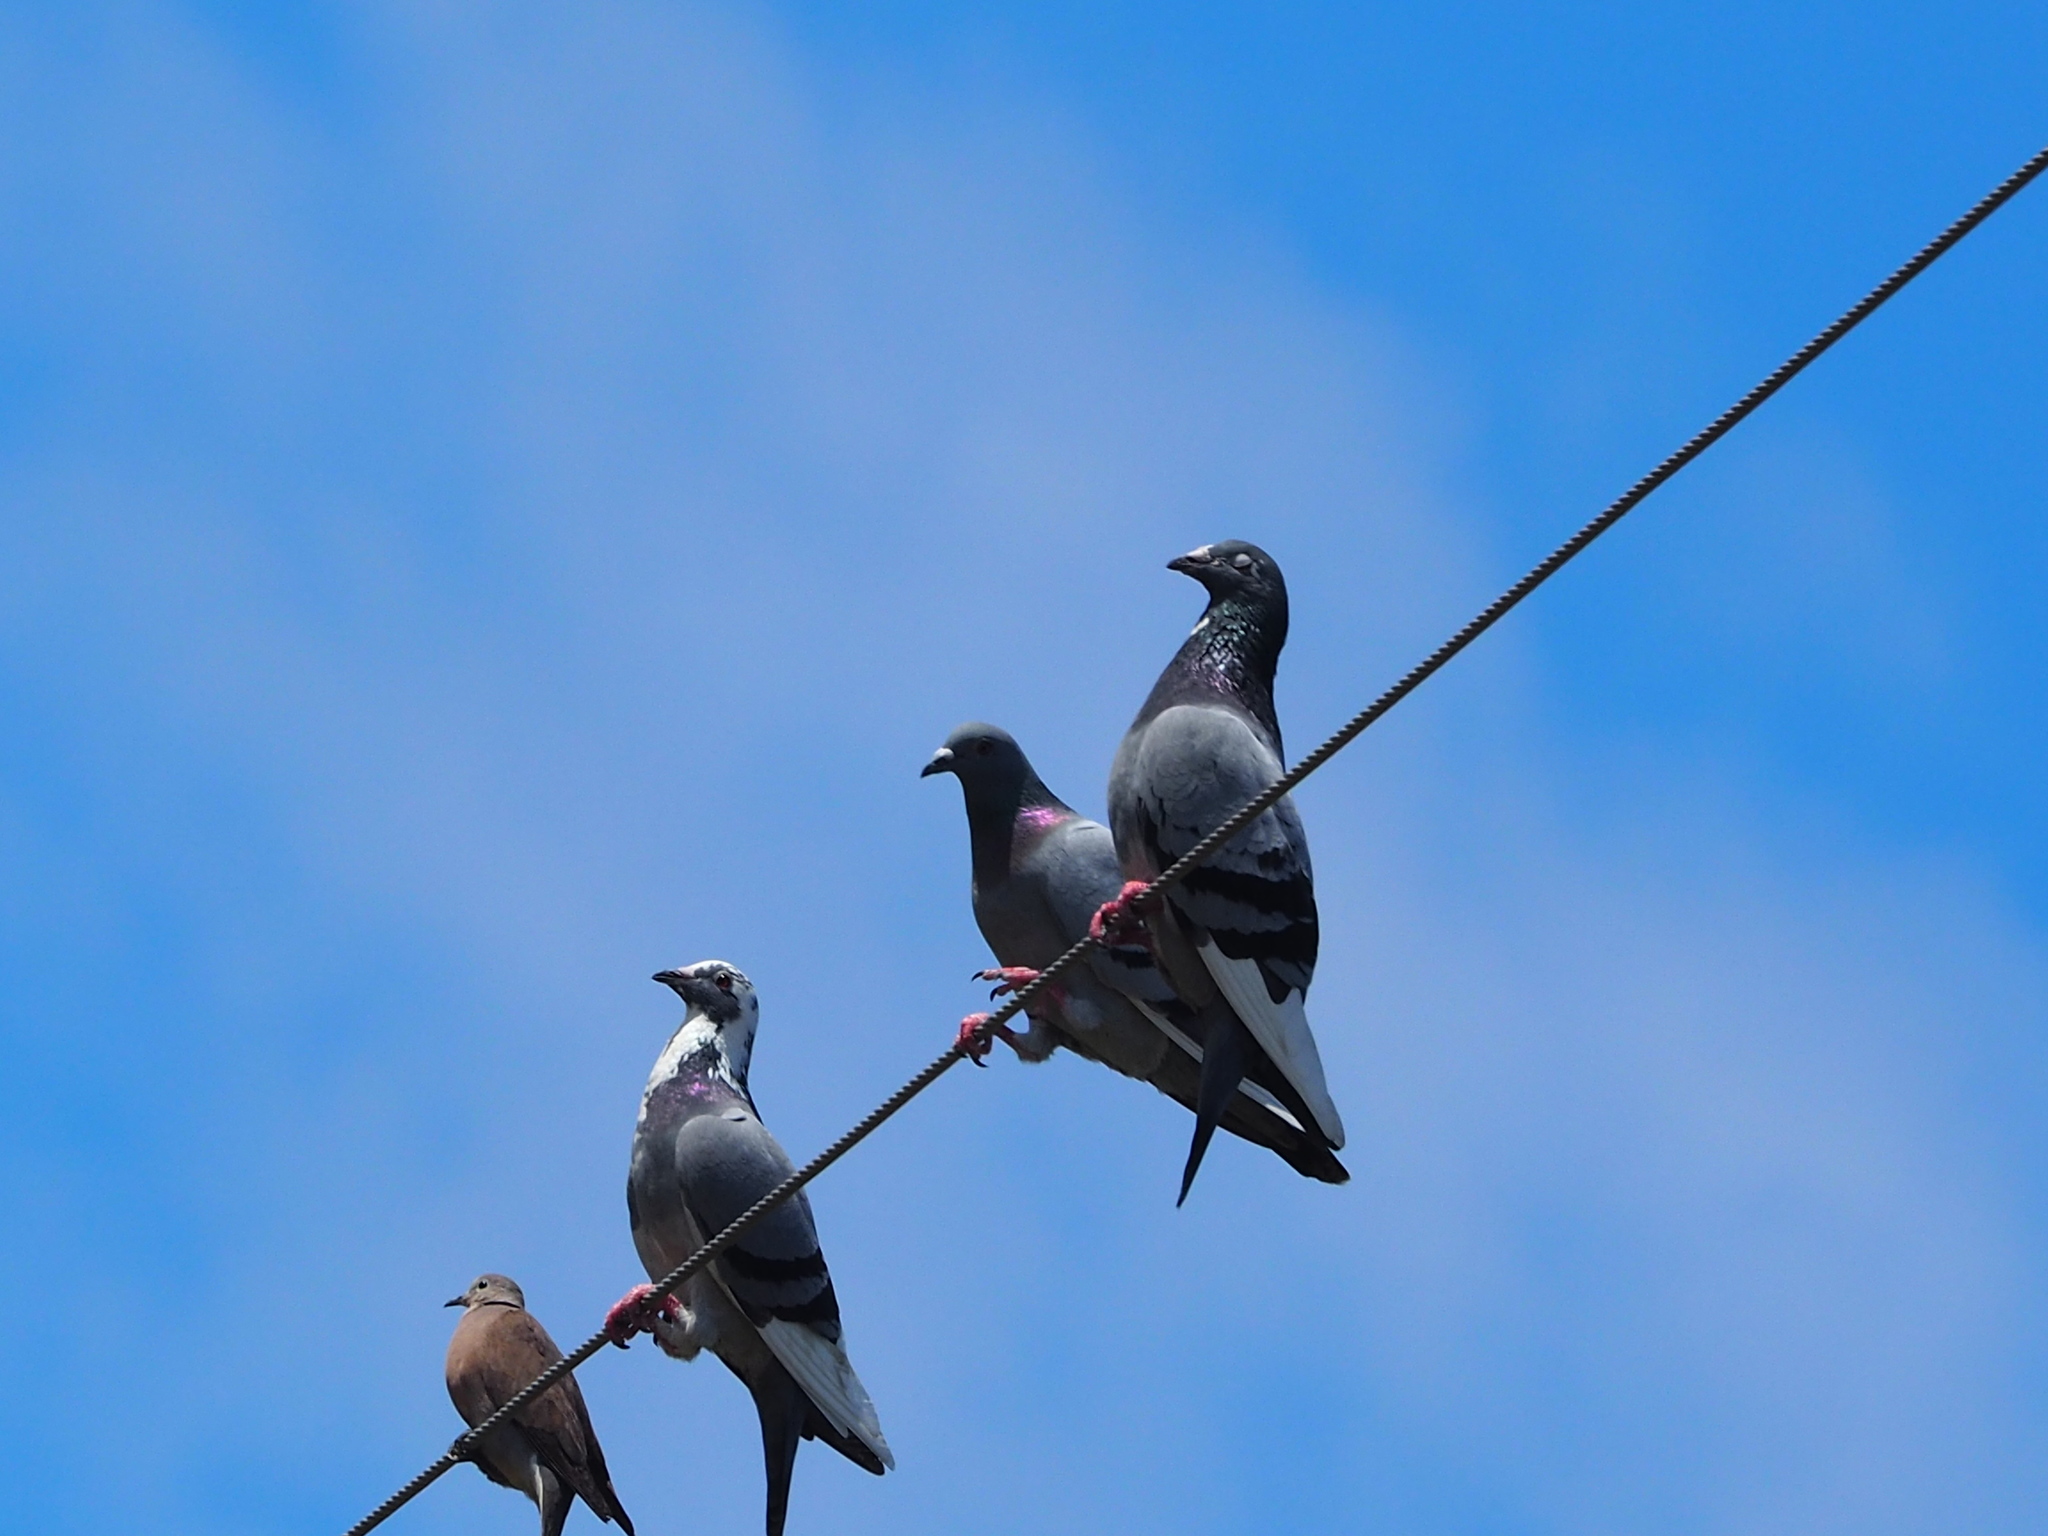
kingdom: Animalia
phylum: Chordata
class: Aves
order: Columbiformes
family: Columbidae
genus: Columba
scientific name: Columba livia
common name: Rock pigeon
